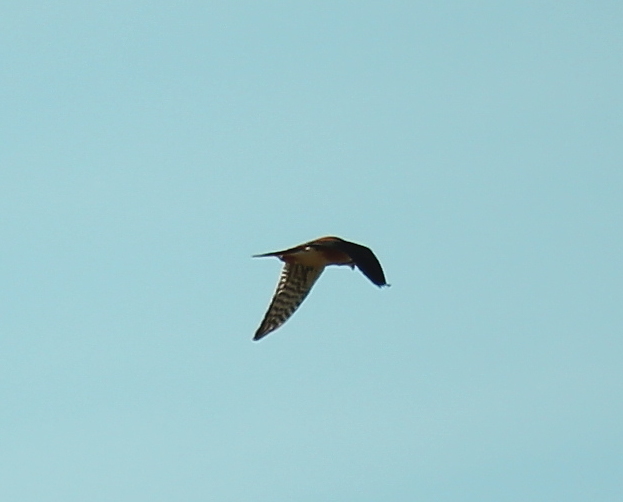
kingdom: Animalia
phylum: Chordata
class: Aves
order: Falconiformes
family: Falconidae
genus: Falco
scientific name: Falco sparverius
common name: American kestrel
